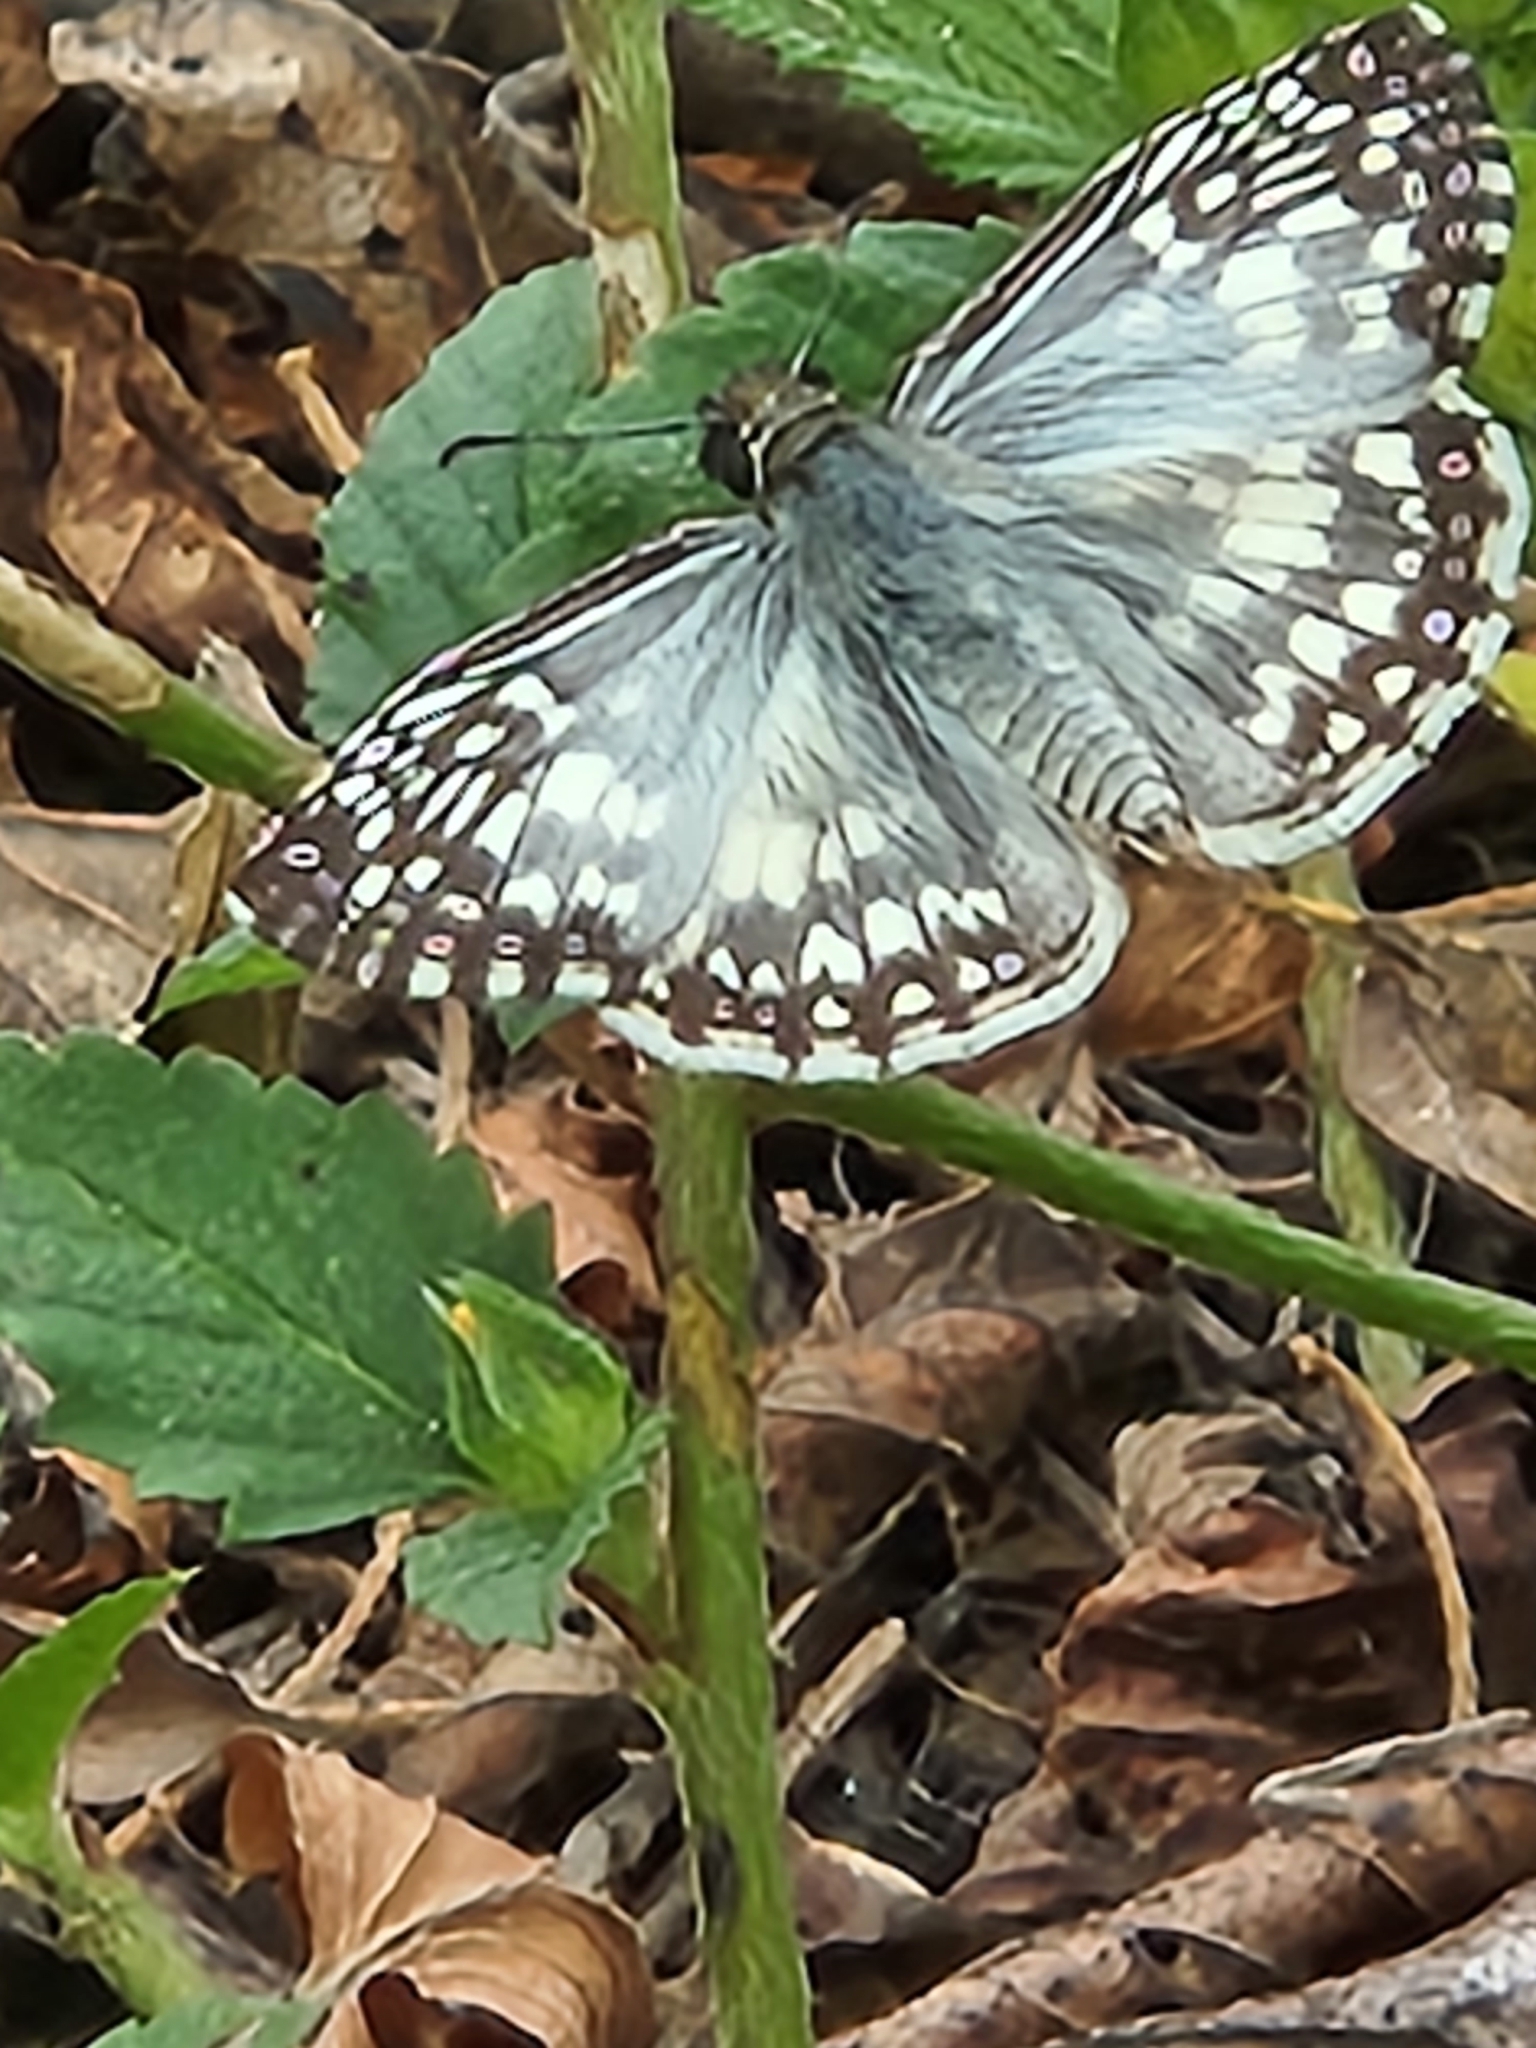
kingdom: Animalia
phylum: Arthropoda
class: Insecta
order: Lepidoptera
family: Hesperiidae
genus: Pyrgus
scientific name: Pyrgus oileus
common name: Tropical checkered-skipper
